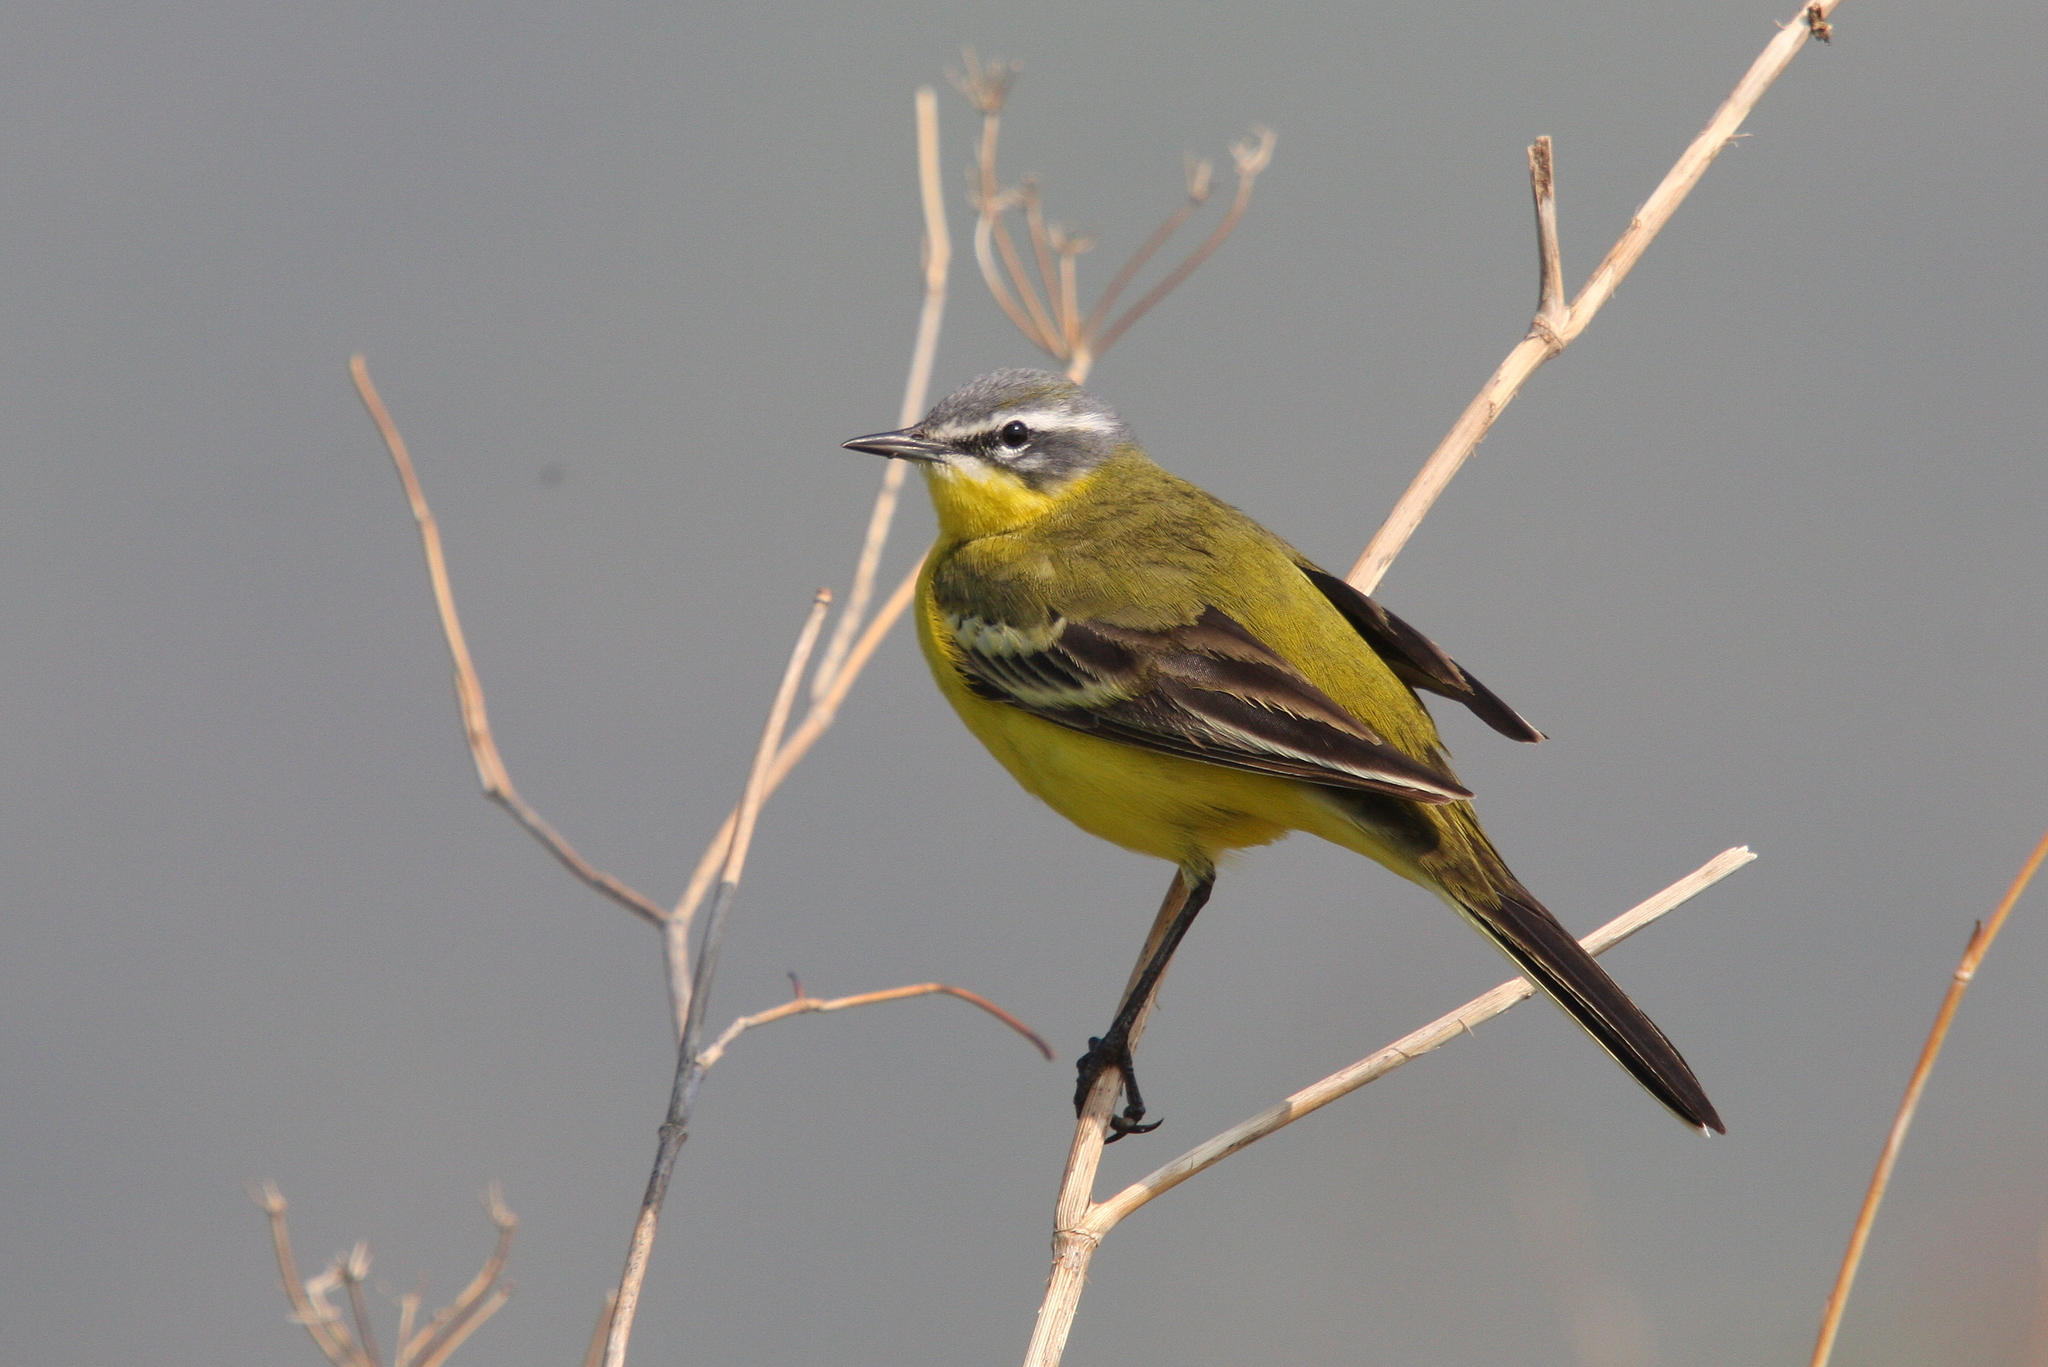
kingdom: Animalia
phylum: Chordata
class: Aves
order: Passeriformes
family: Motacillidae
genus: Motacilla
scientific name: Motacilla flava
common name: Western yellow wagtail
